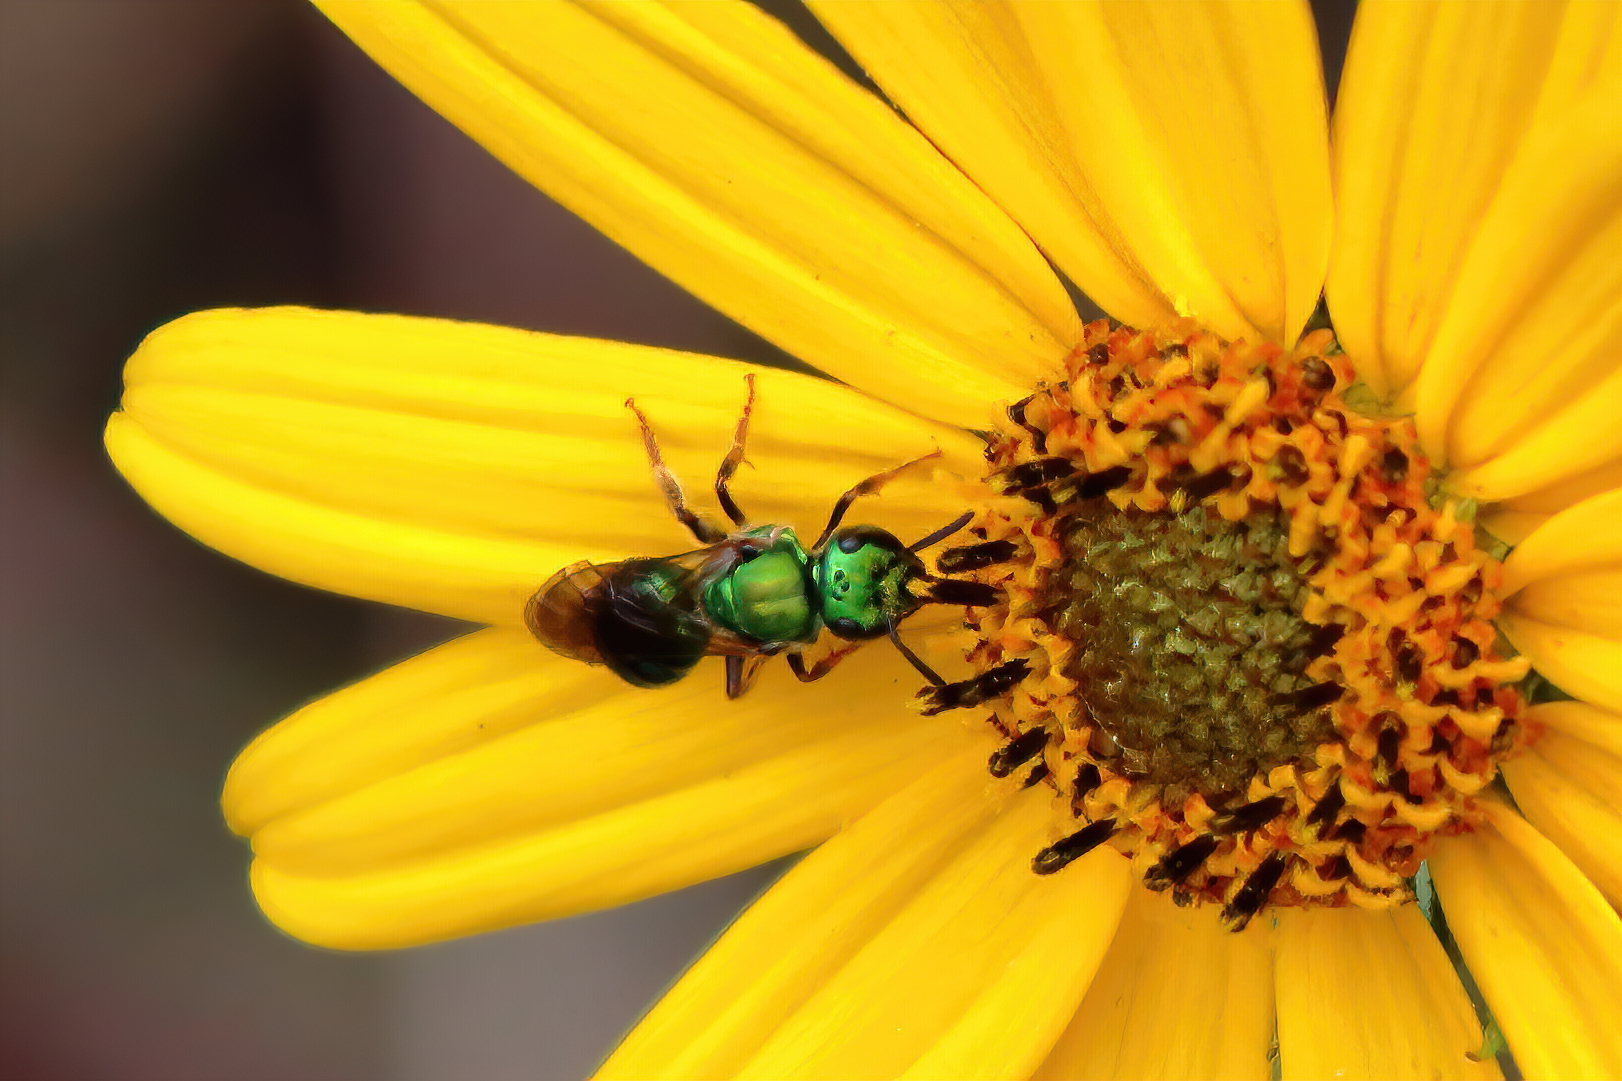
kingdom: Animalia
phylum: Arthropoda
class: Insecta
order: Hymenoptera
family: Halictidae
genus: Augochlora
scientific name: Augochlora pura
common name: Pure green sweat bee
